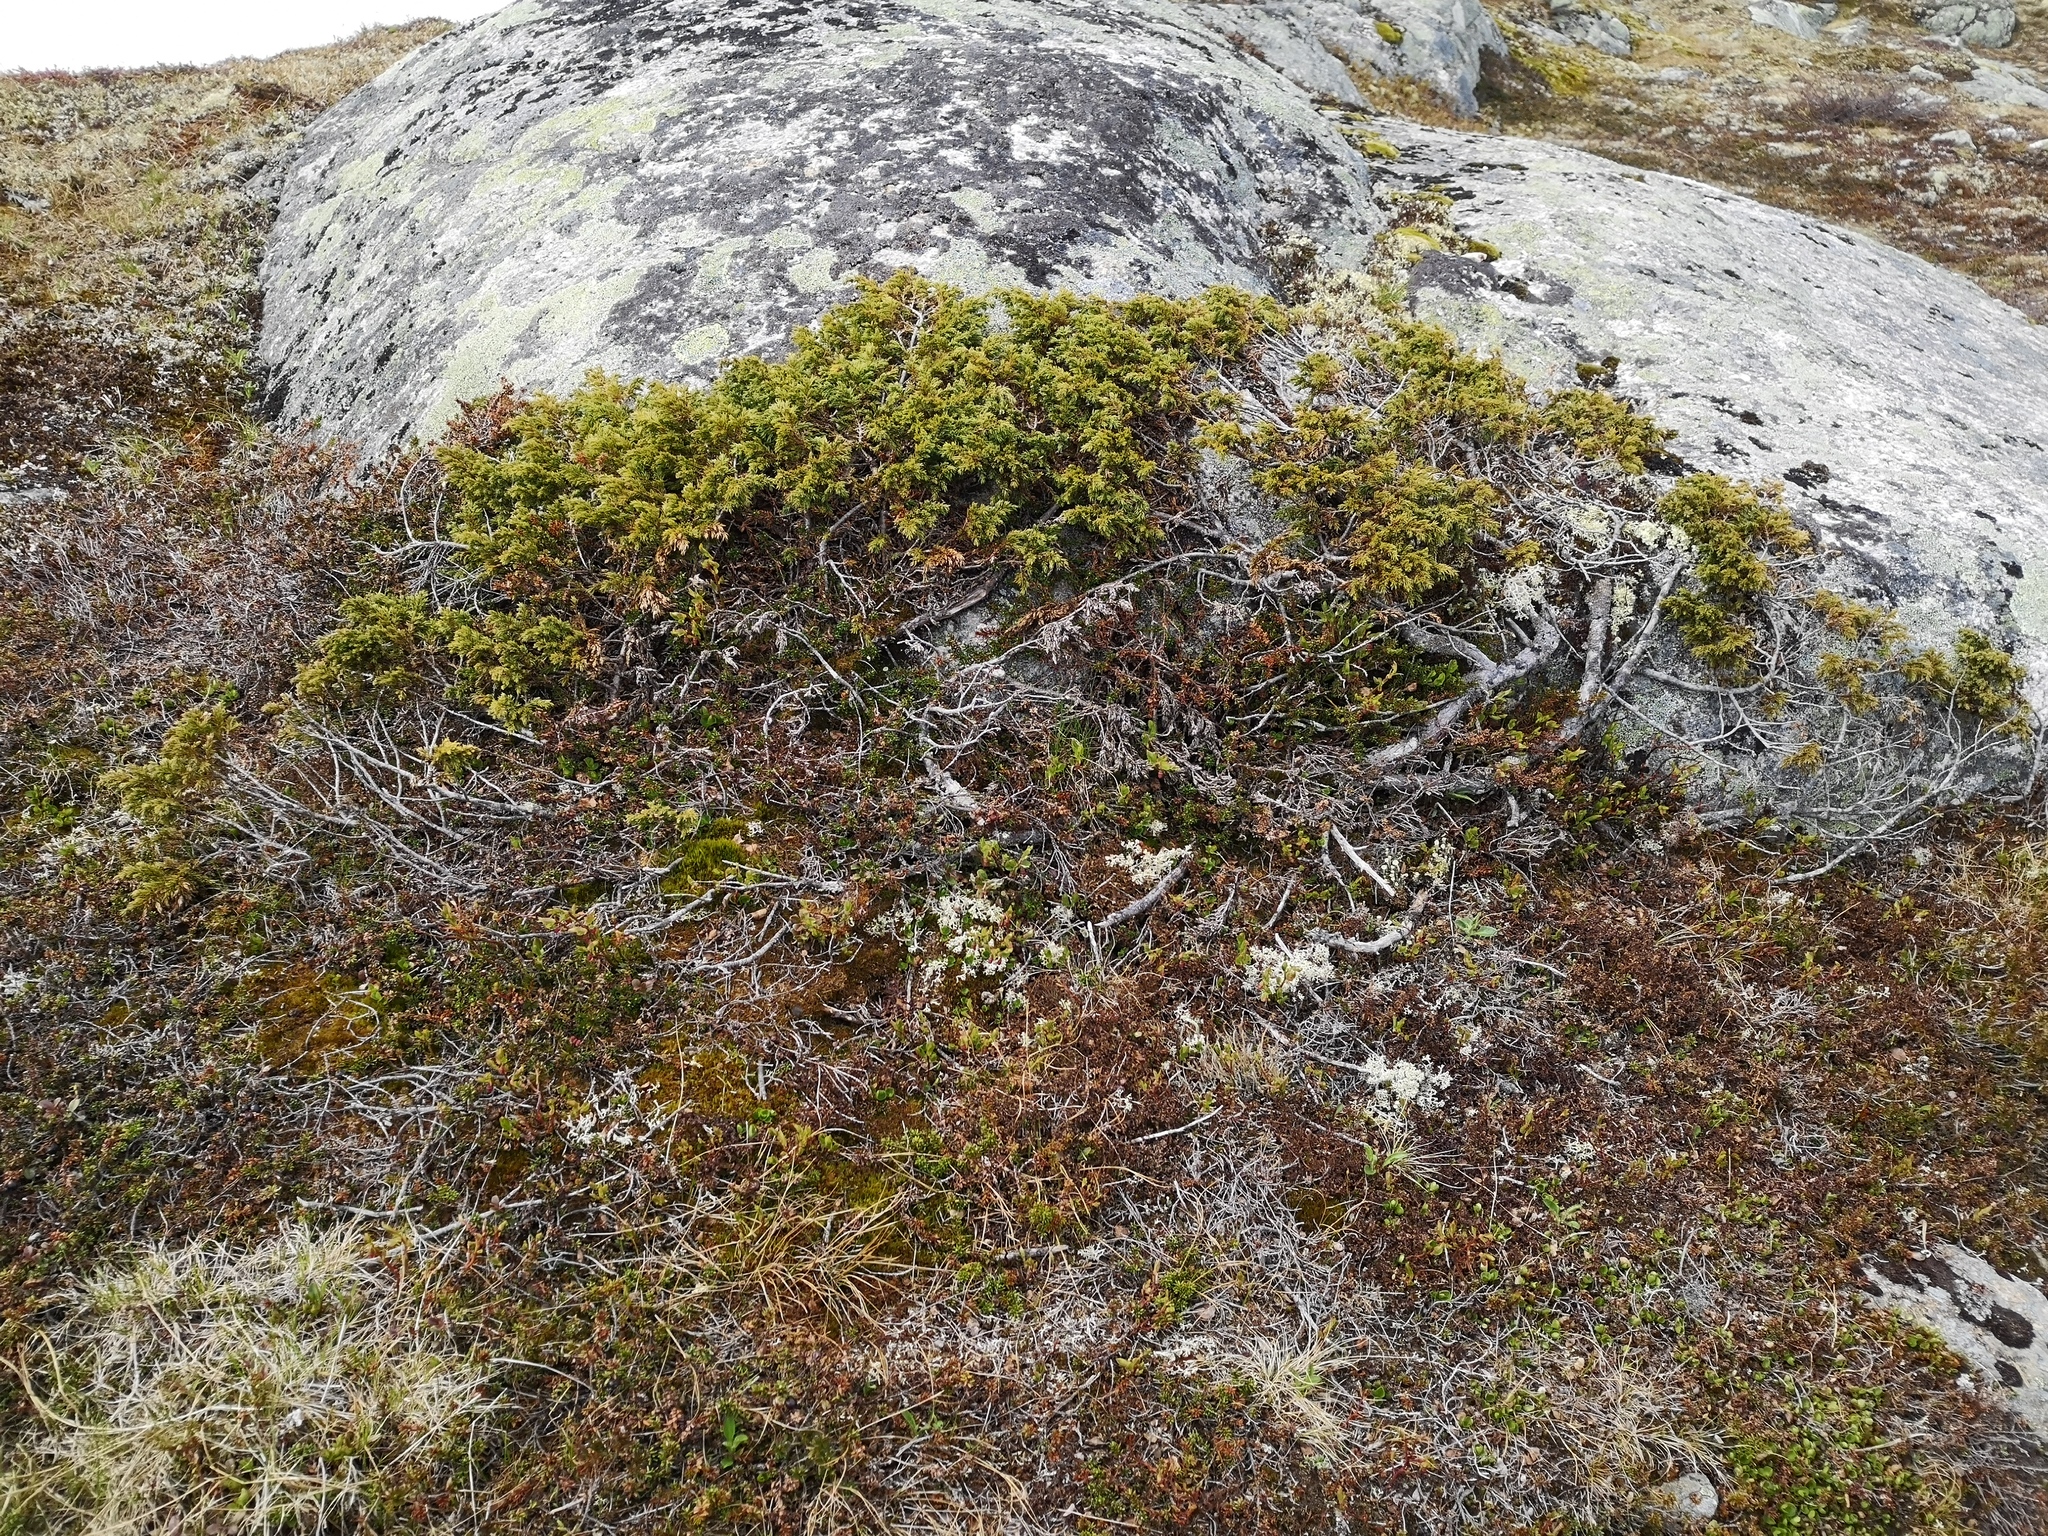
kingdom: Plantae
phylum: Tracheophyta
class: Pinopsida
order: Pinales
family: Cupressaceae
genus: Juniperus
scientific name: Juniperus communis
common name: Common juniper
